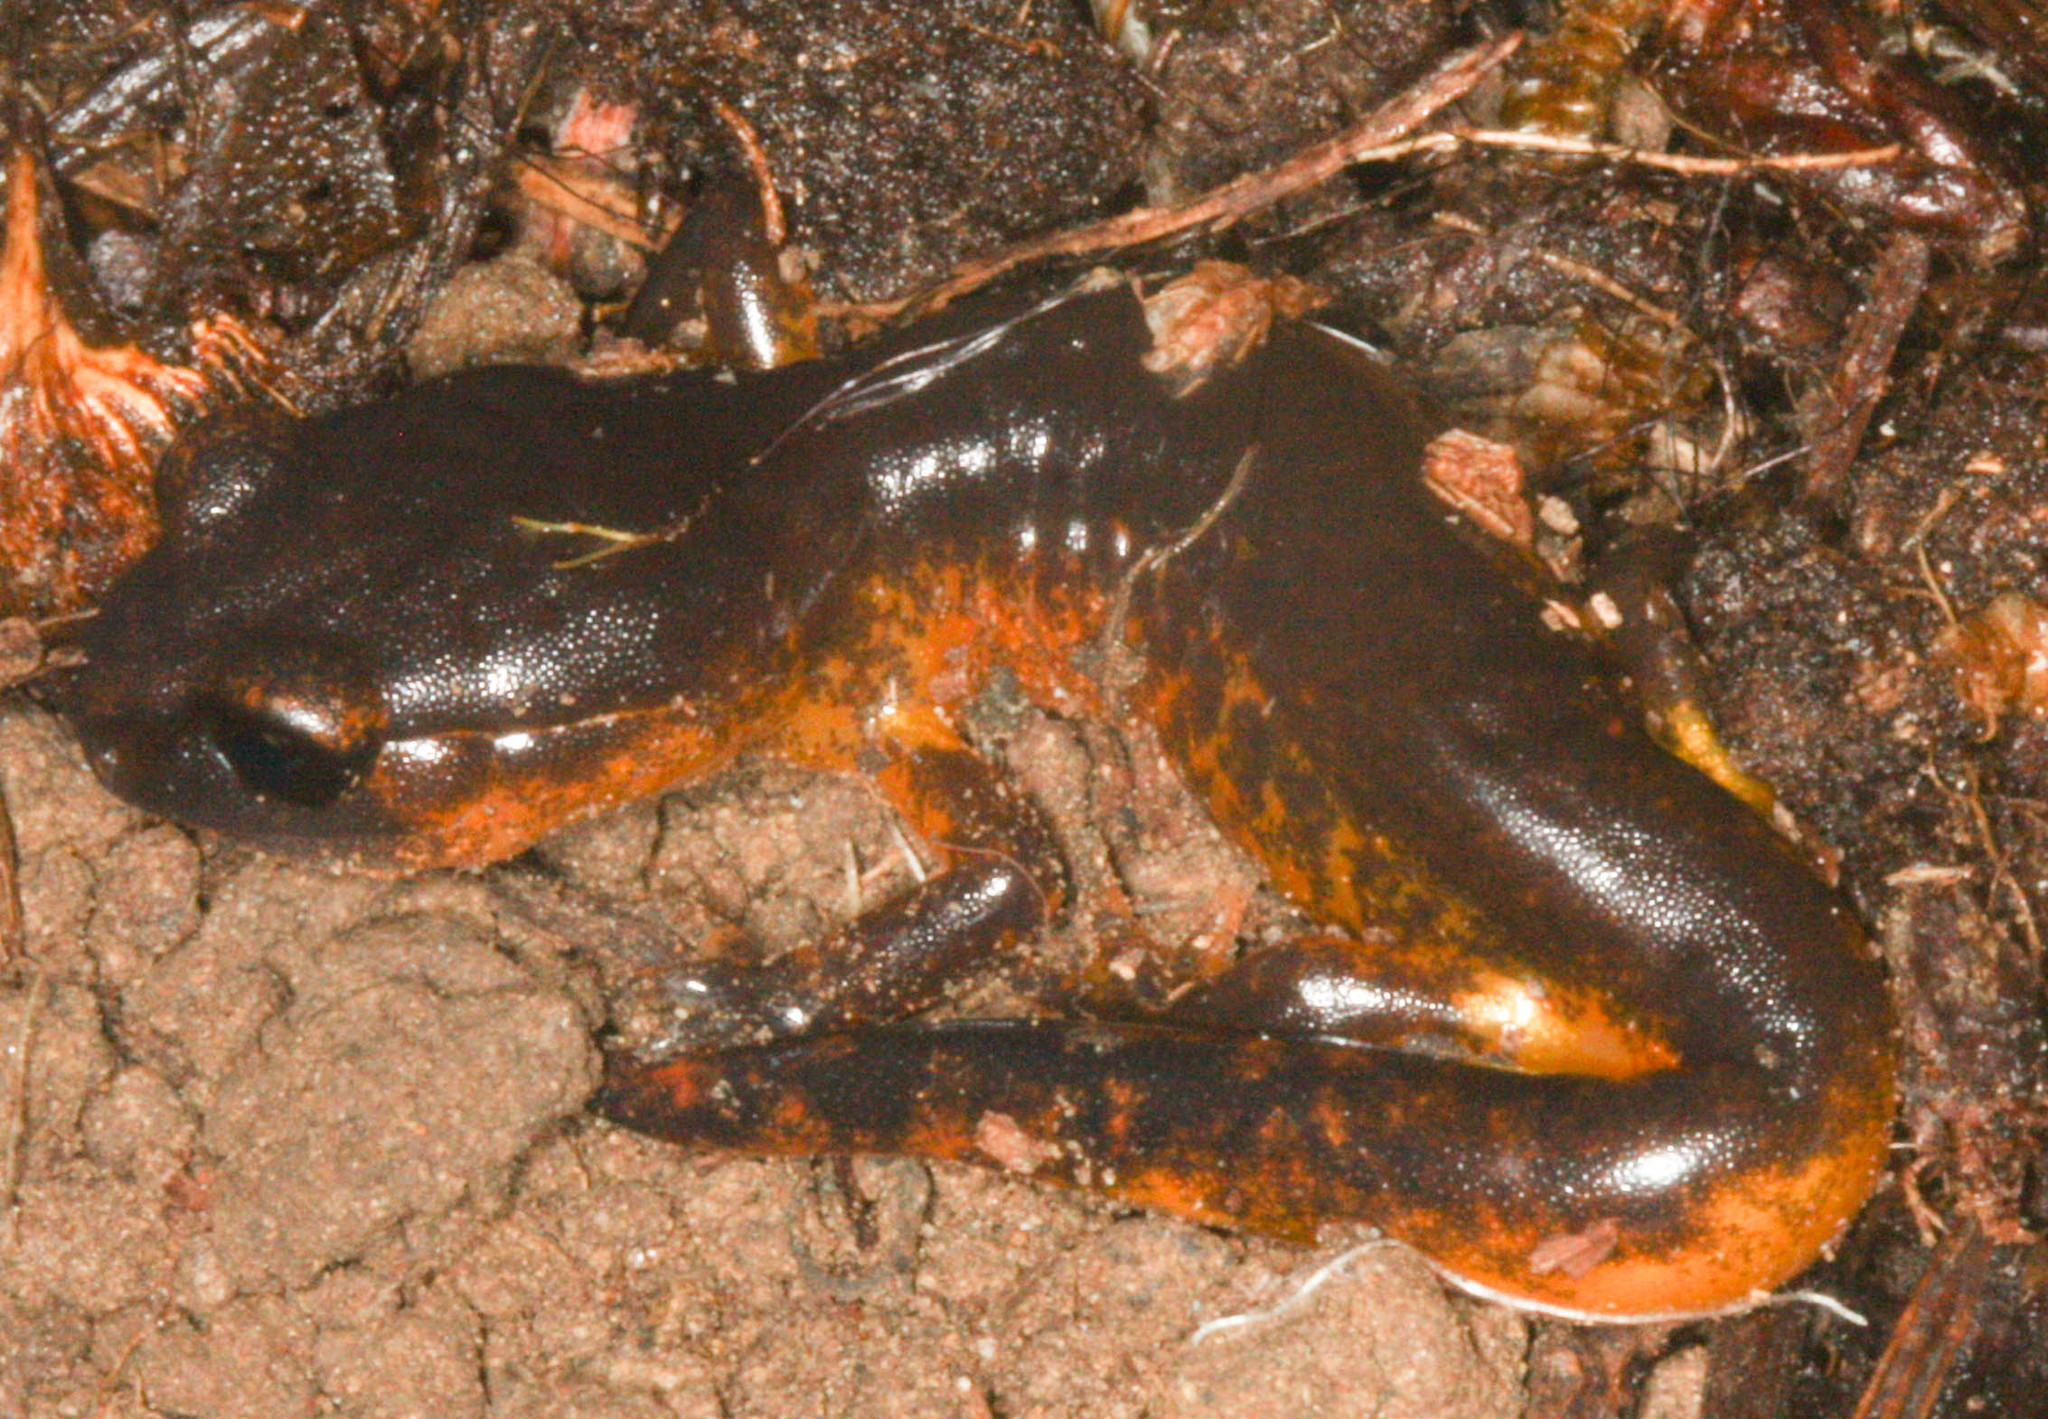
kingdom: Animalia
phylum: Chordata
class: Amphibia
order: Caudata
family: Plethodontidae
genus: Ensatina
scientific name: Ensatina eschscholtzii
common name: Ensatina
